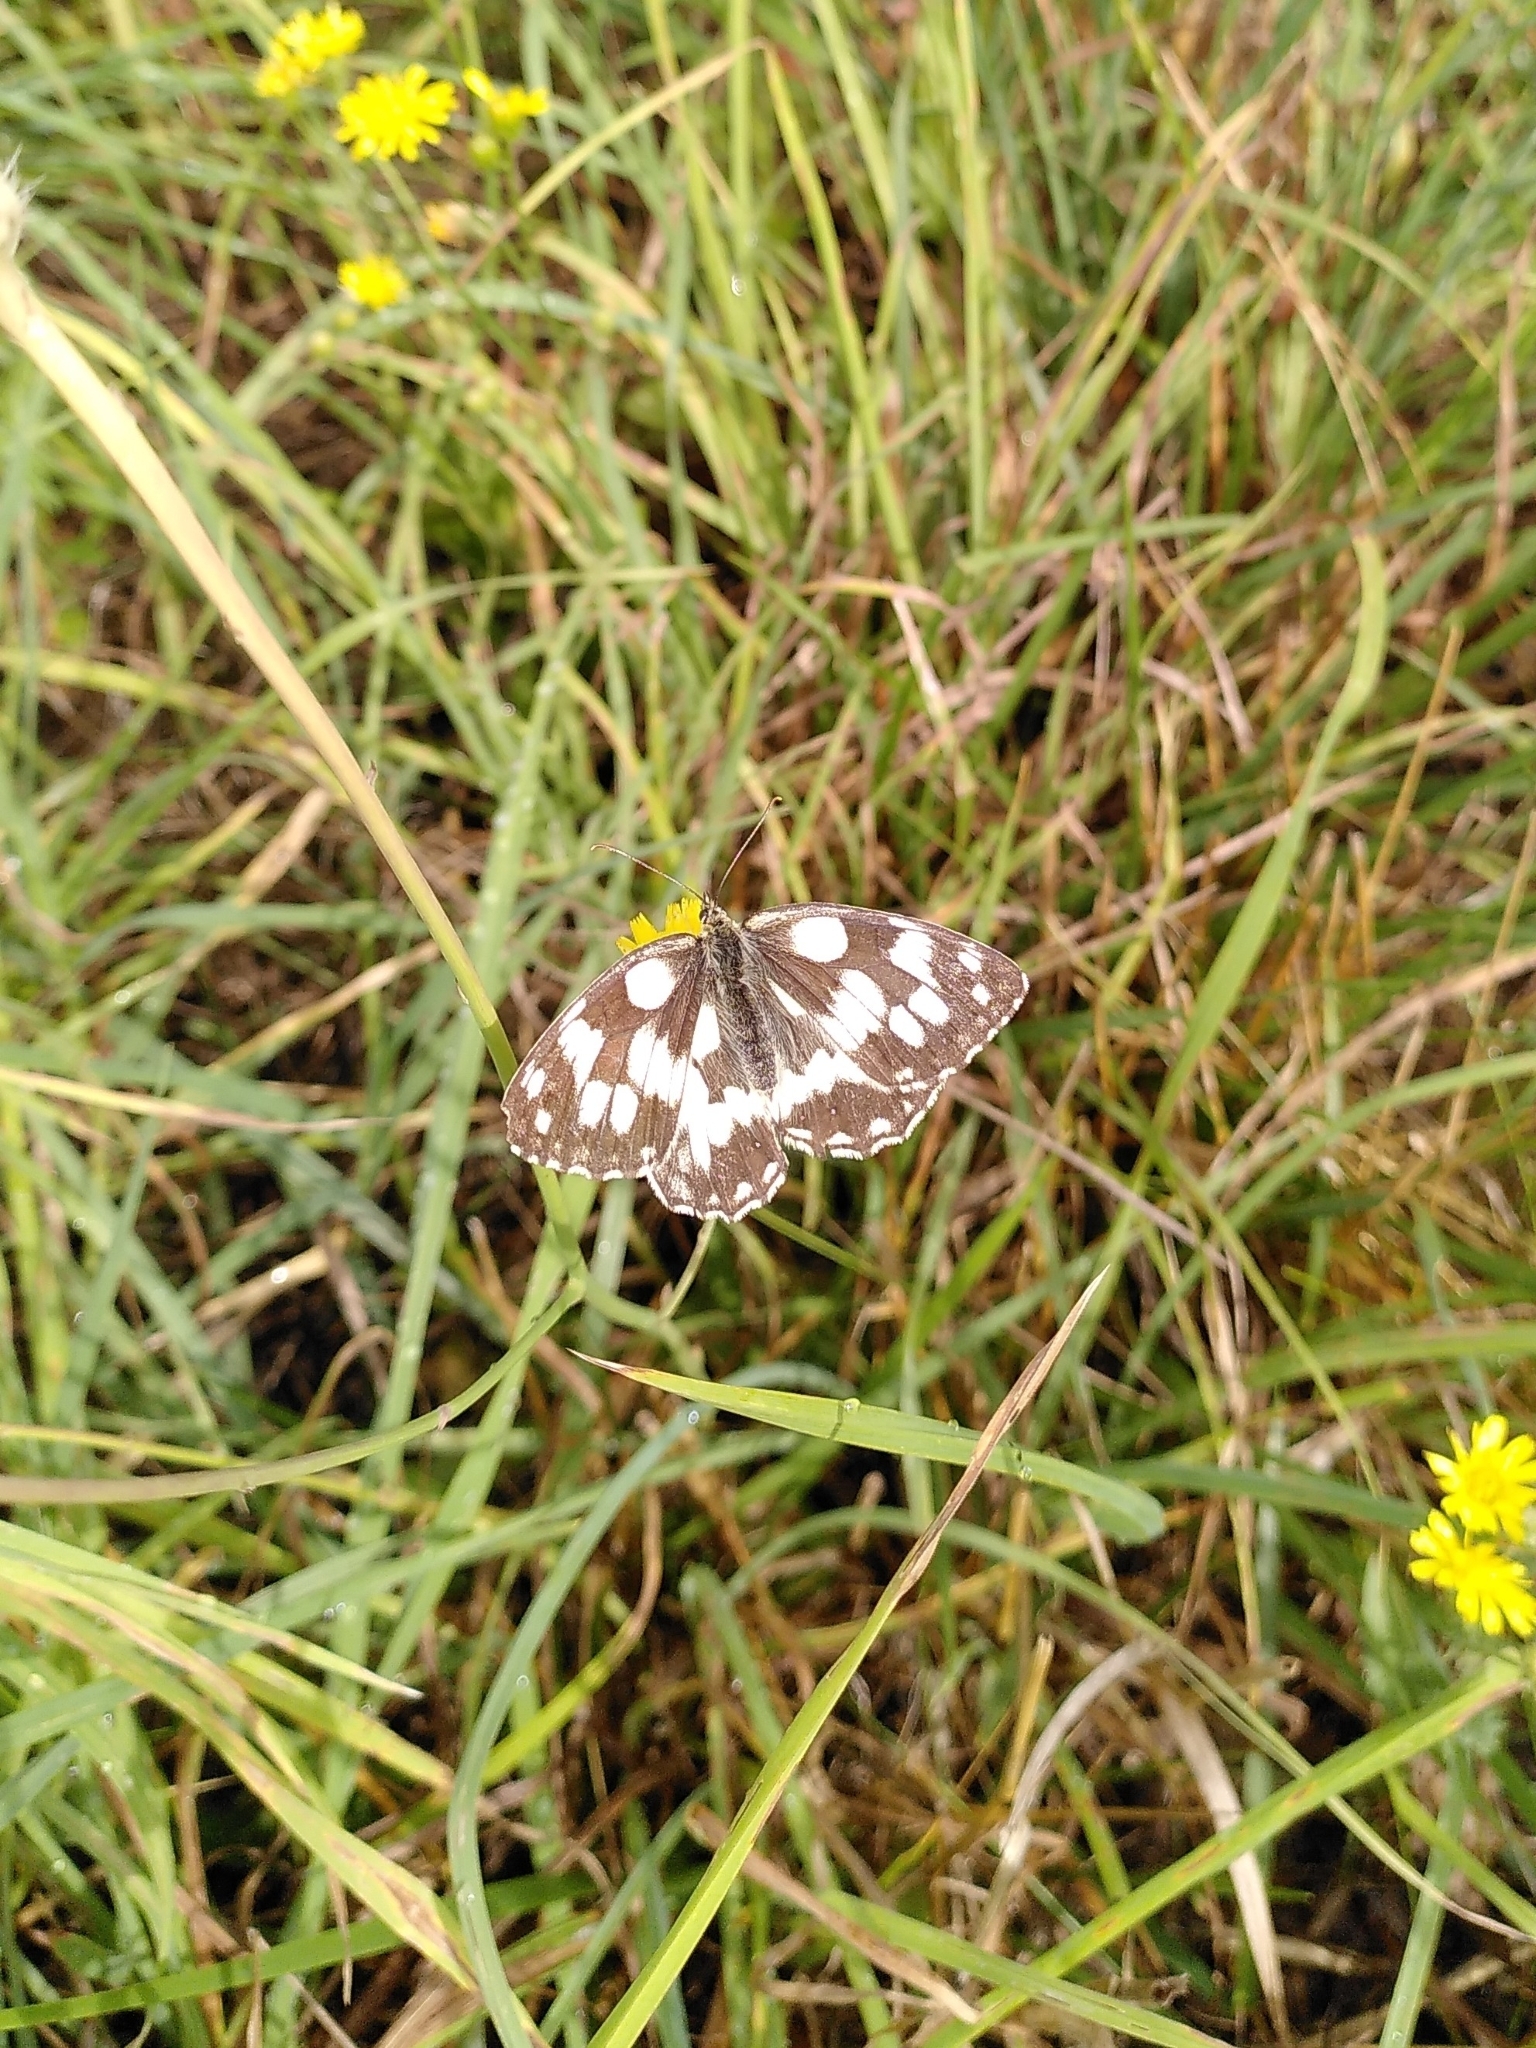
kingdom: Animalia
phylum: Arthropoda
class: Insecta
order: Lepidoptera
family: Nymphalidae
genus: Melanargia
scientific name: Melanargia galathea
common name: Marbled white
